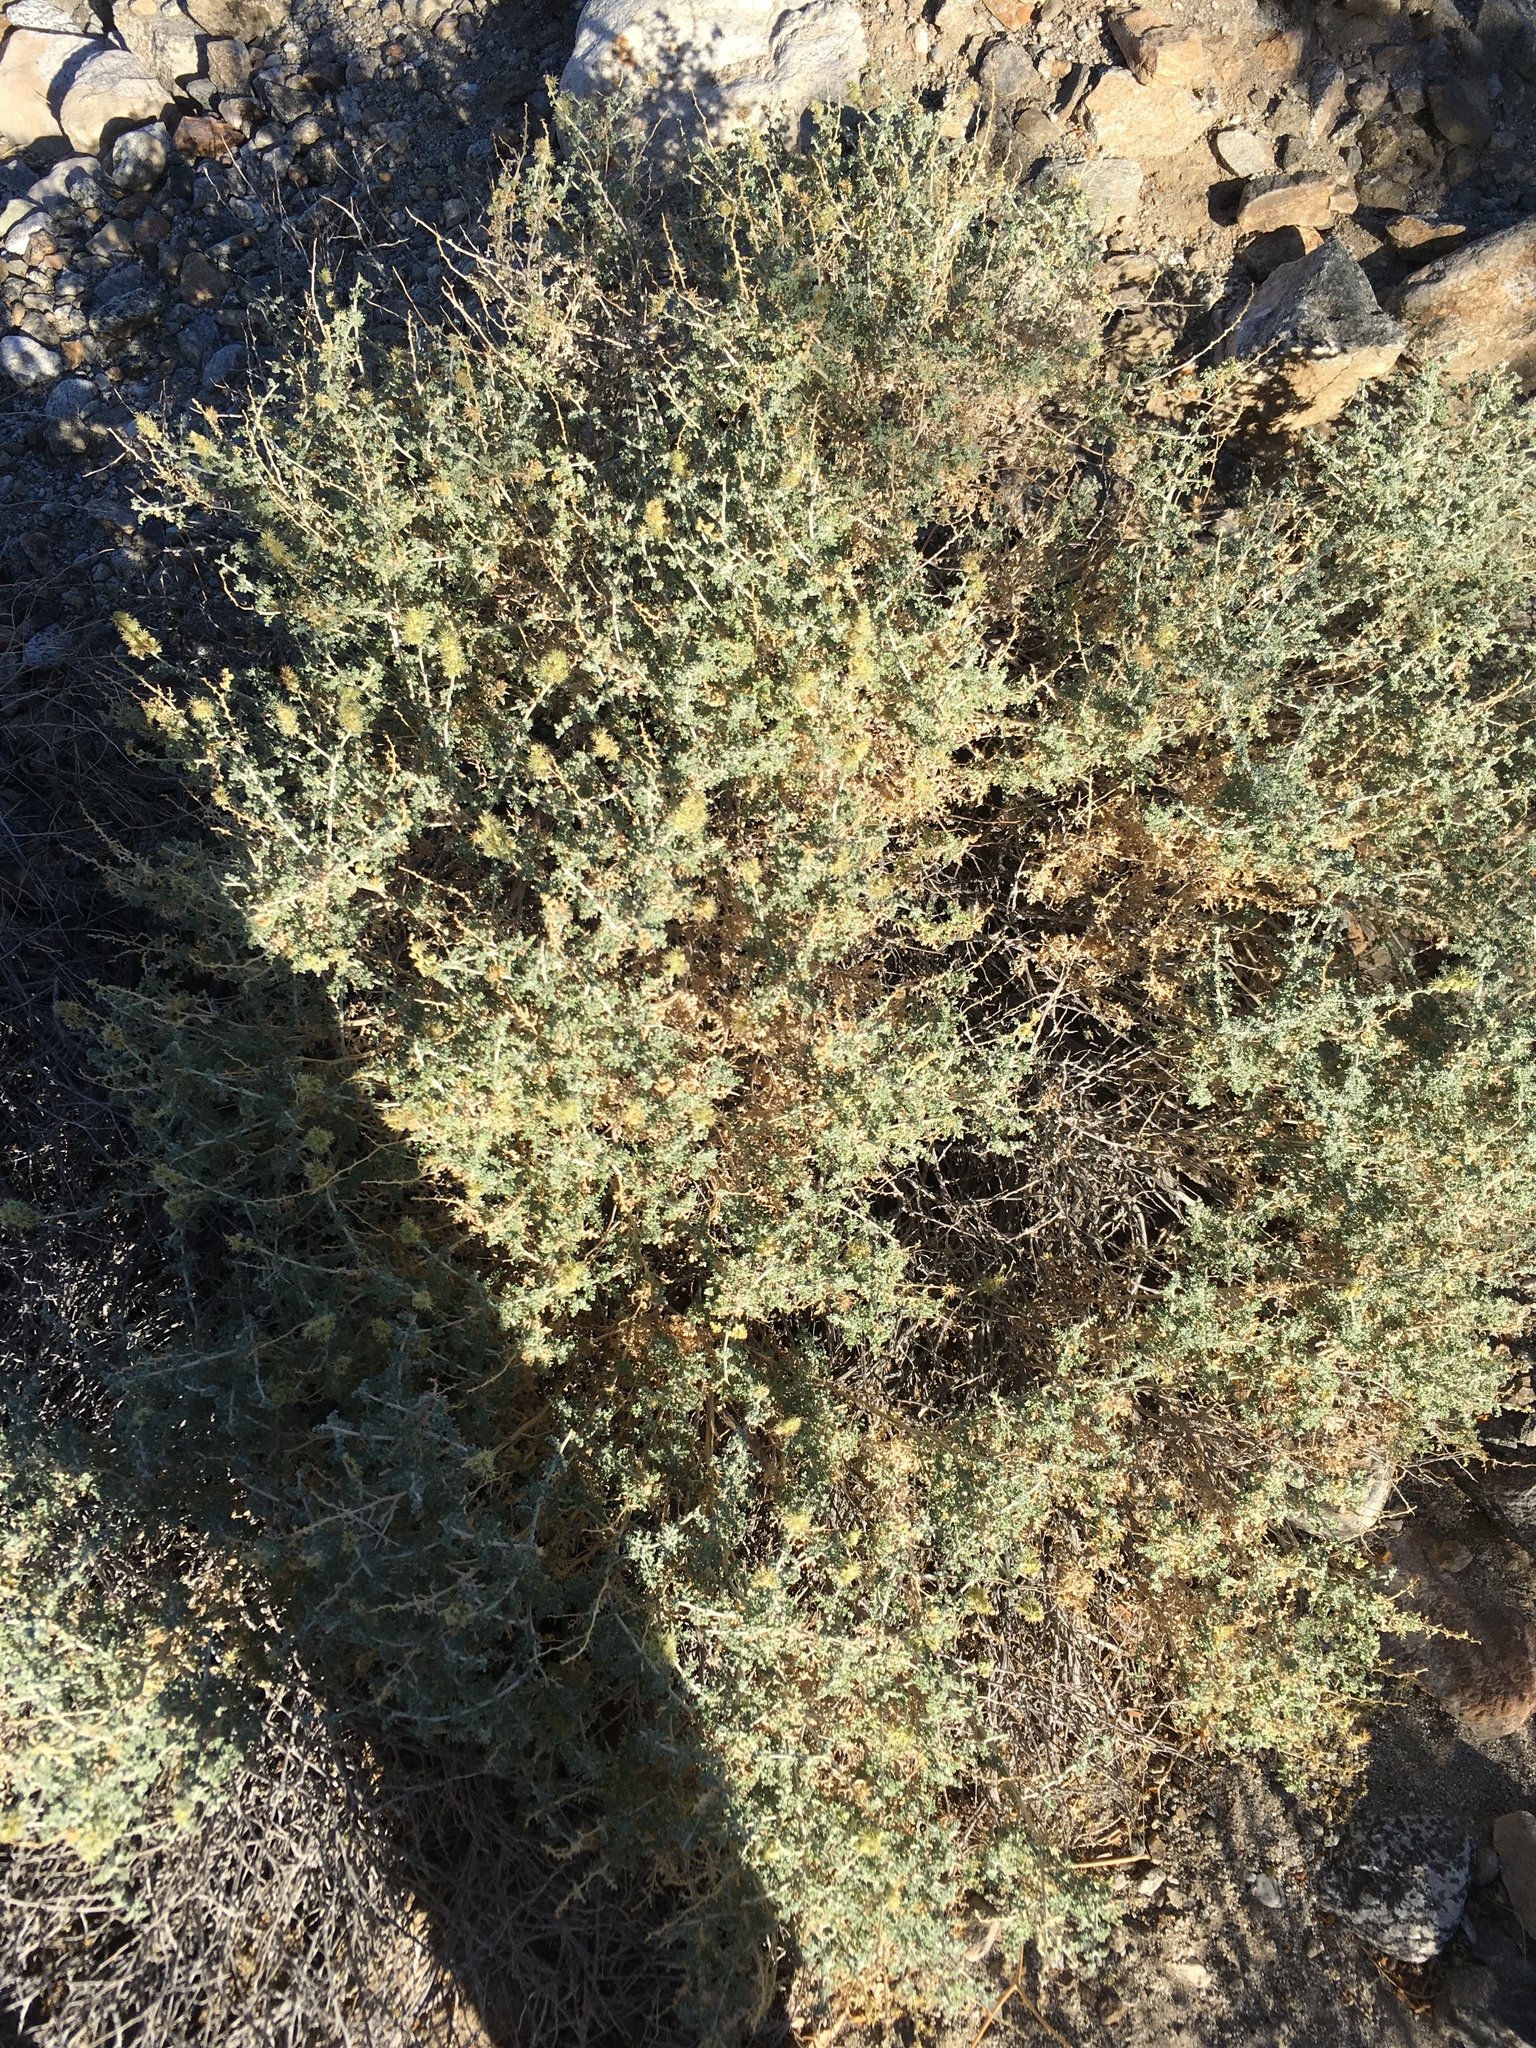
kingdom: Plantae
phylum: Tracheophyta
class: Magnoliopsida
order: Asterales
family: Asteraceae
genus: Ambrosia
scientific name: Ambrosia dumosa
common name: Bur-sage
